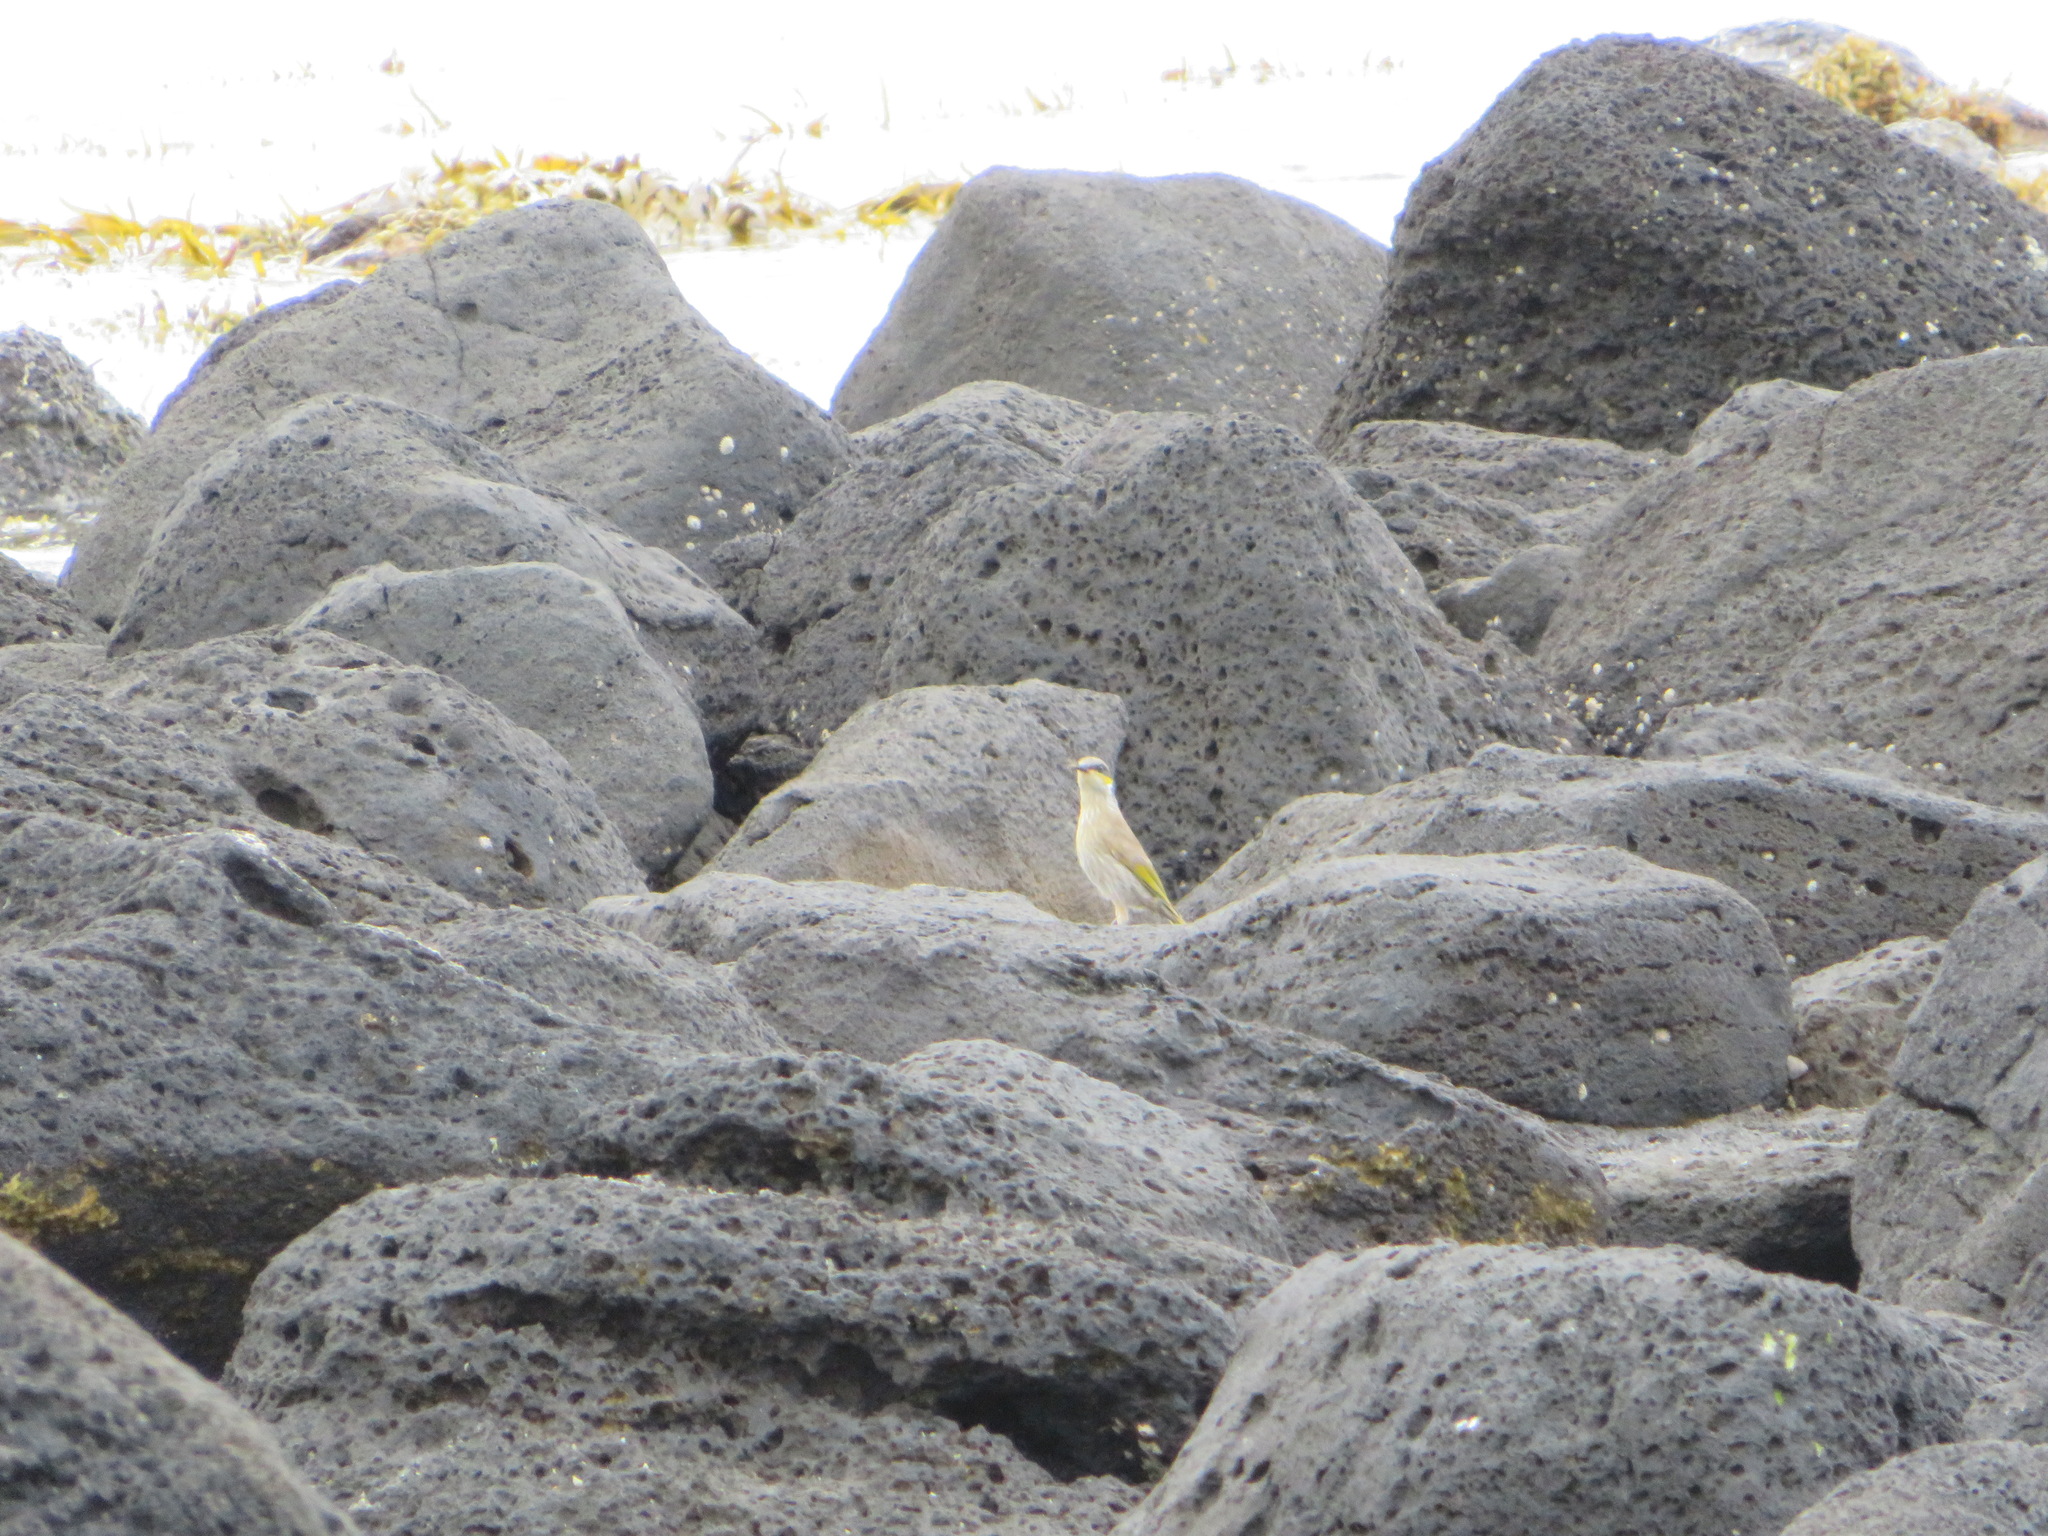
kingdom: Animalia
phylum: Chordata
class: Aves
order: Passeriformes
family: Meliphagidae
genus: Gavicalis
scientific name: Gavicalis virescens
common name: Singing honeyeater
